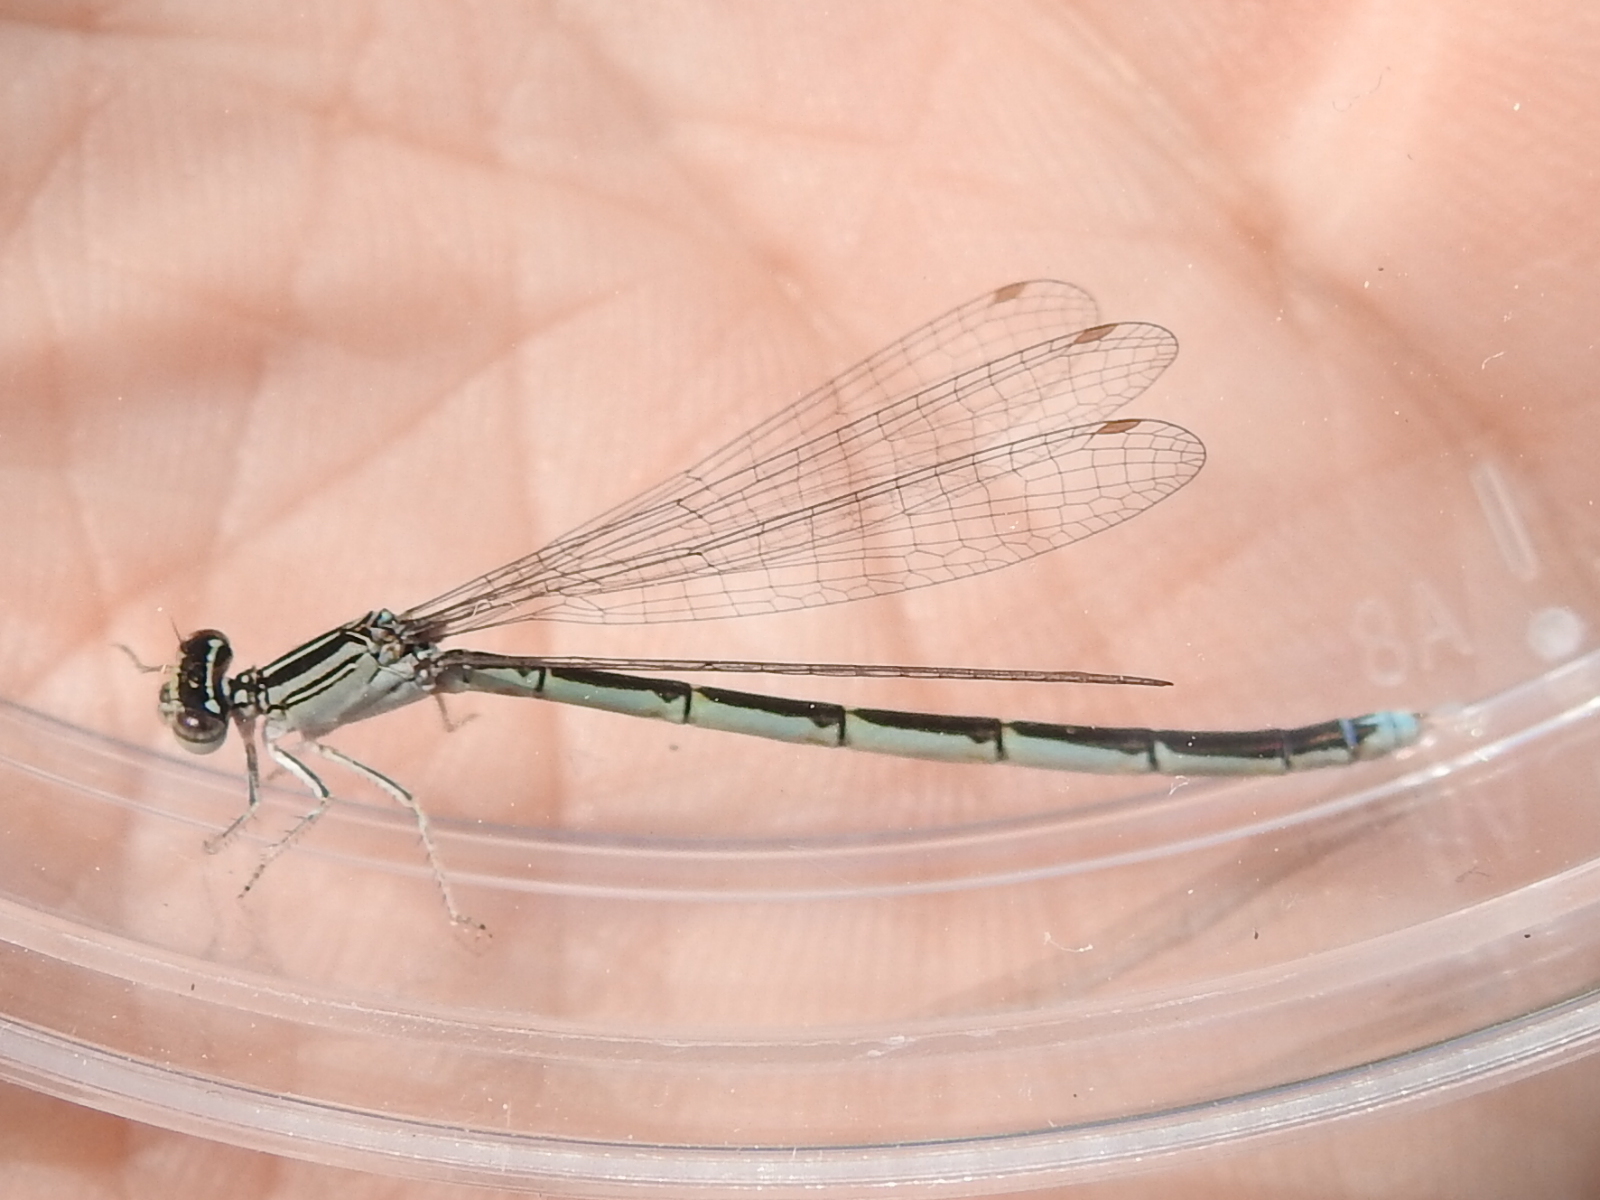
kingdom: Animalia
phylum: Arthropoda
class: Insecta
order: Odonata
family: Coenagrionidae
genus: Enallagma
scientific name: Enallagma basidens
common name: Double-striped bluet
